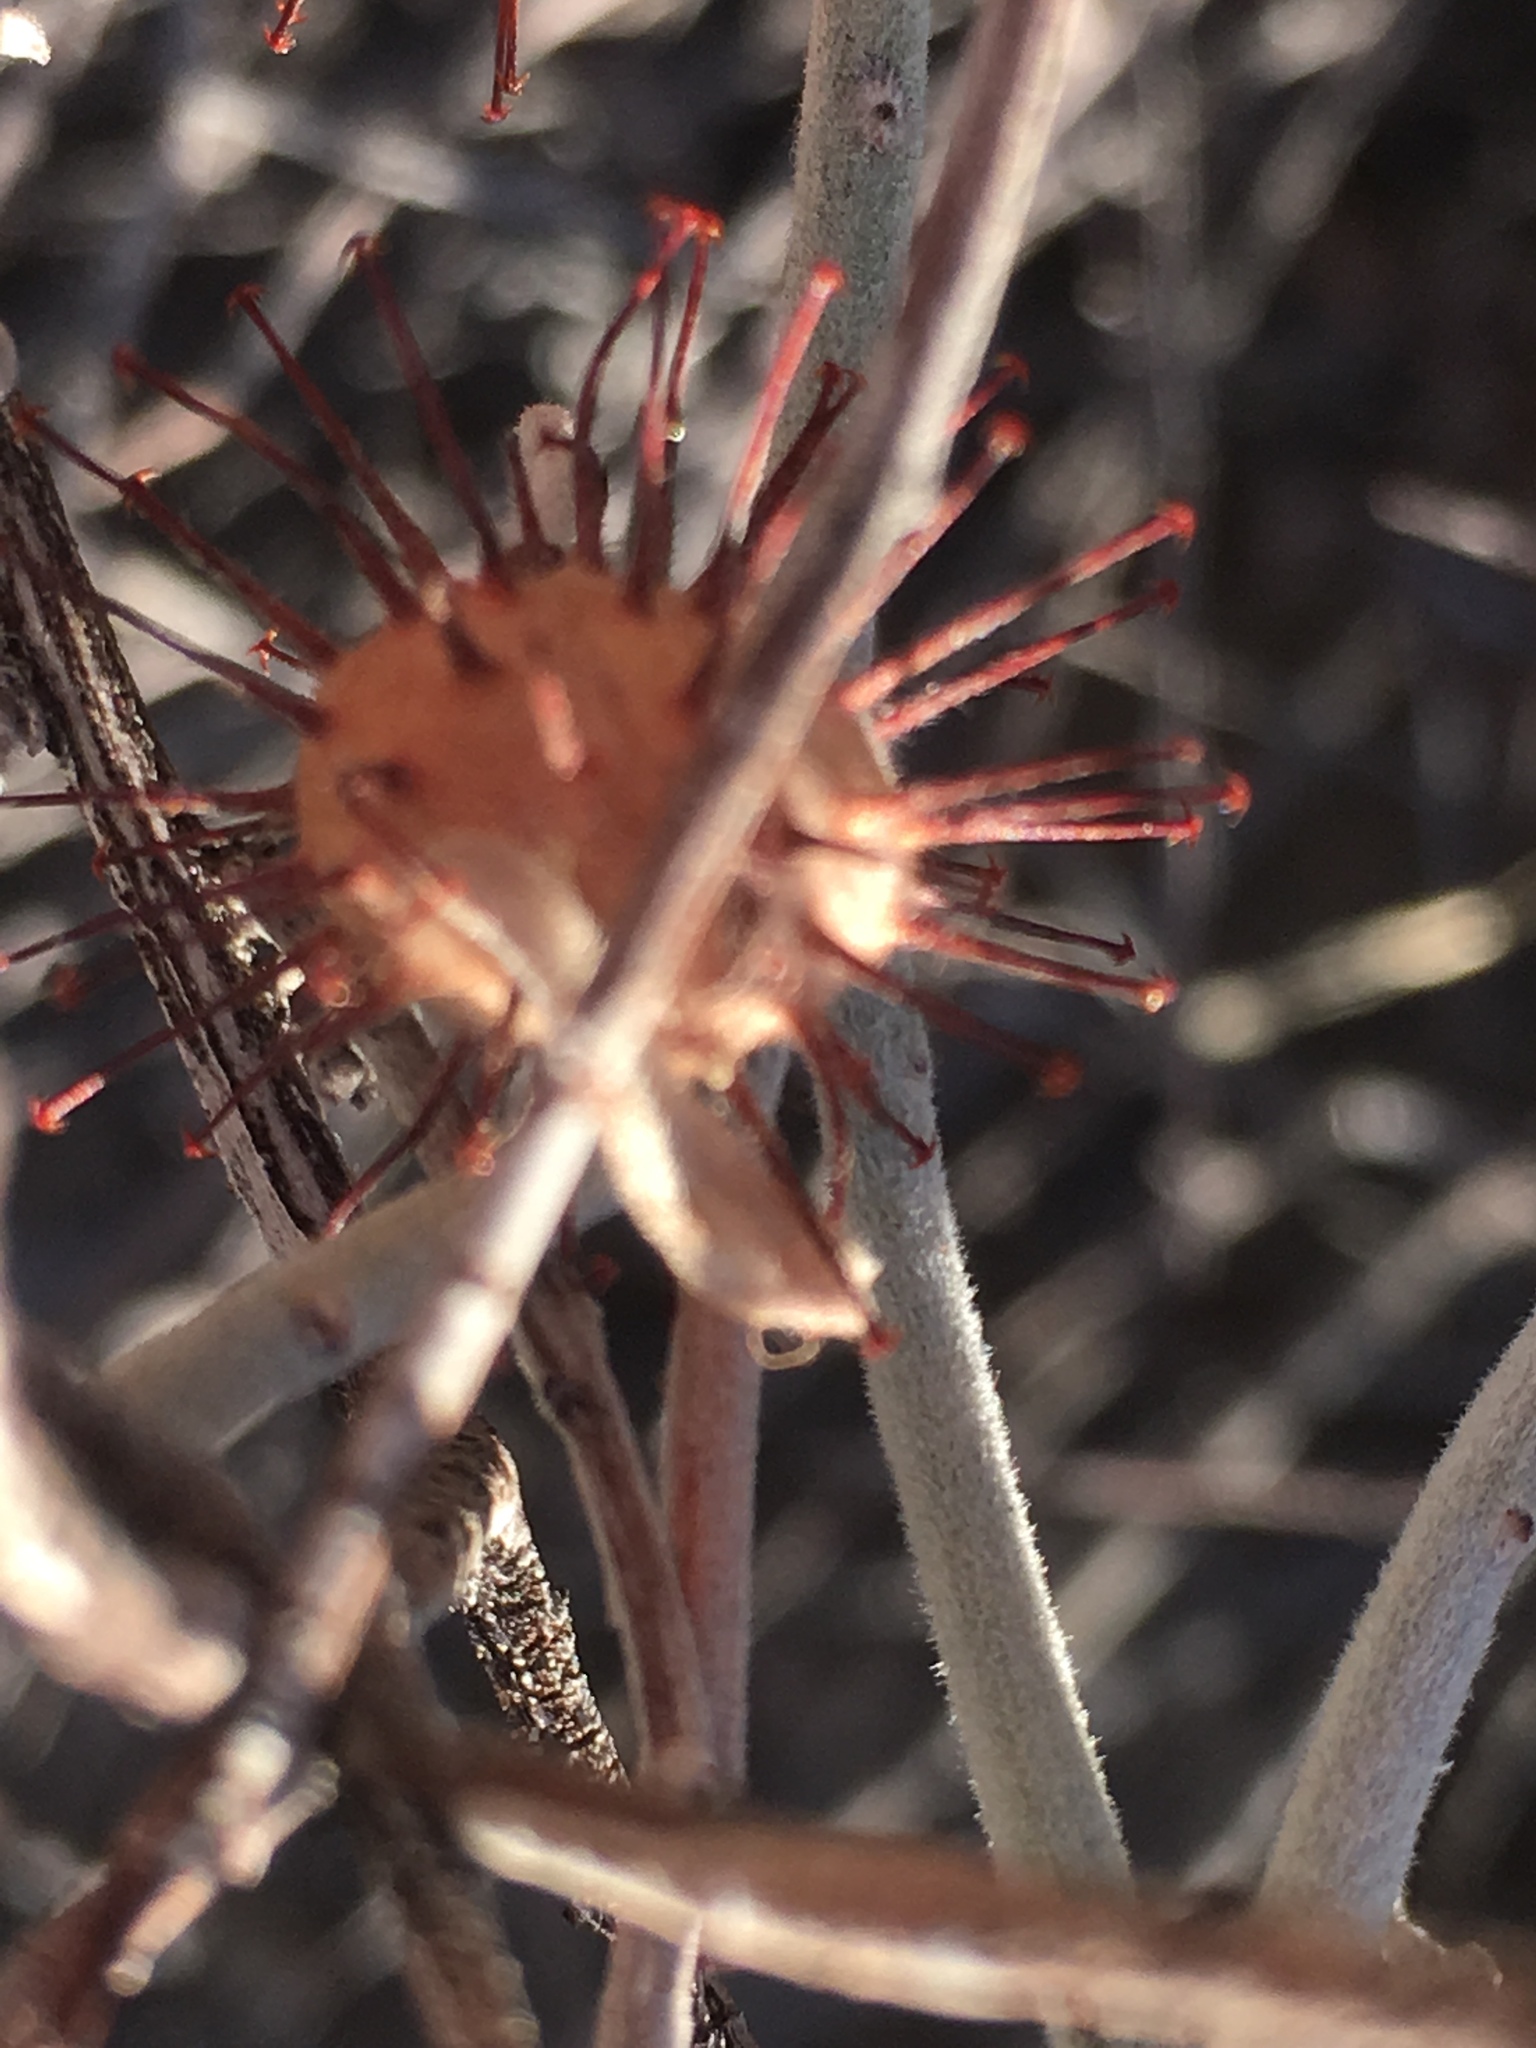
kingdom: Plantae
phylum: Tracheophyta
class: Magnoliopsida
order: Zygophyllales
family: Krameriaceae
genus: Krameria
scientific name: Krameria bicolor
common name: White ratany
